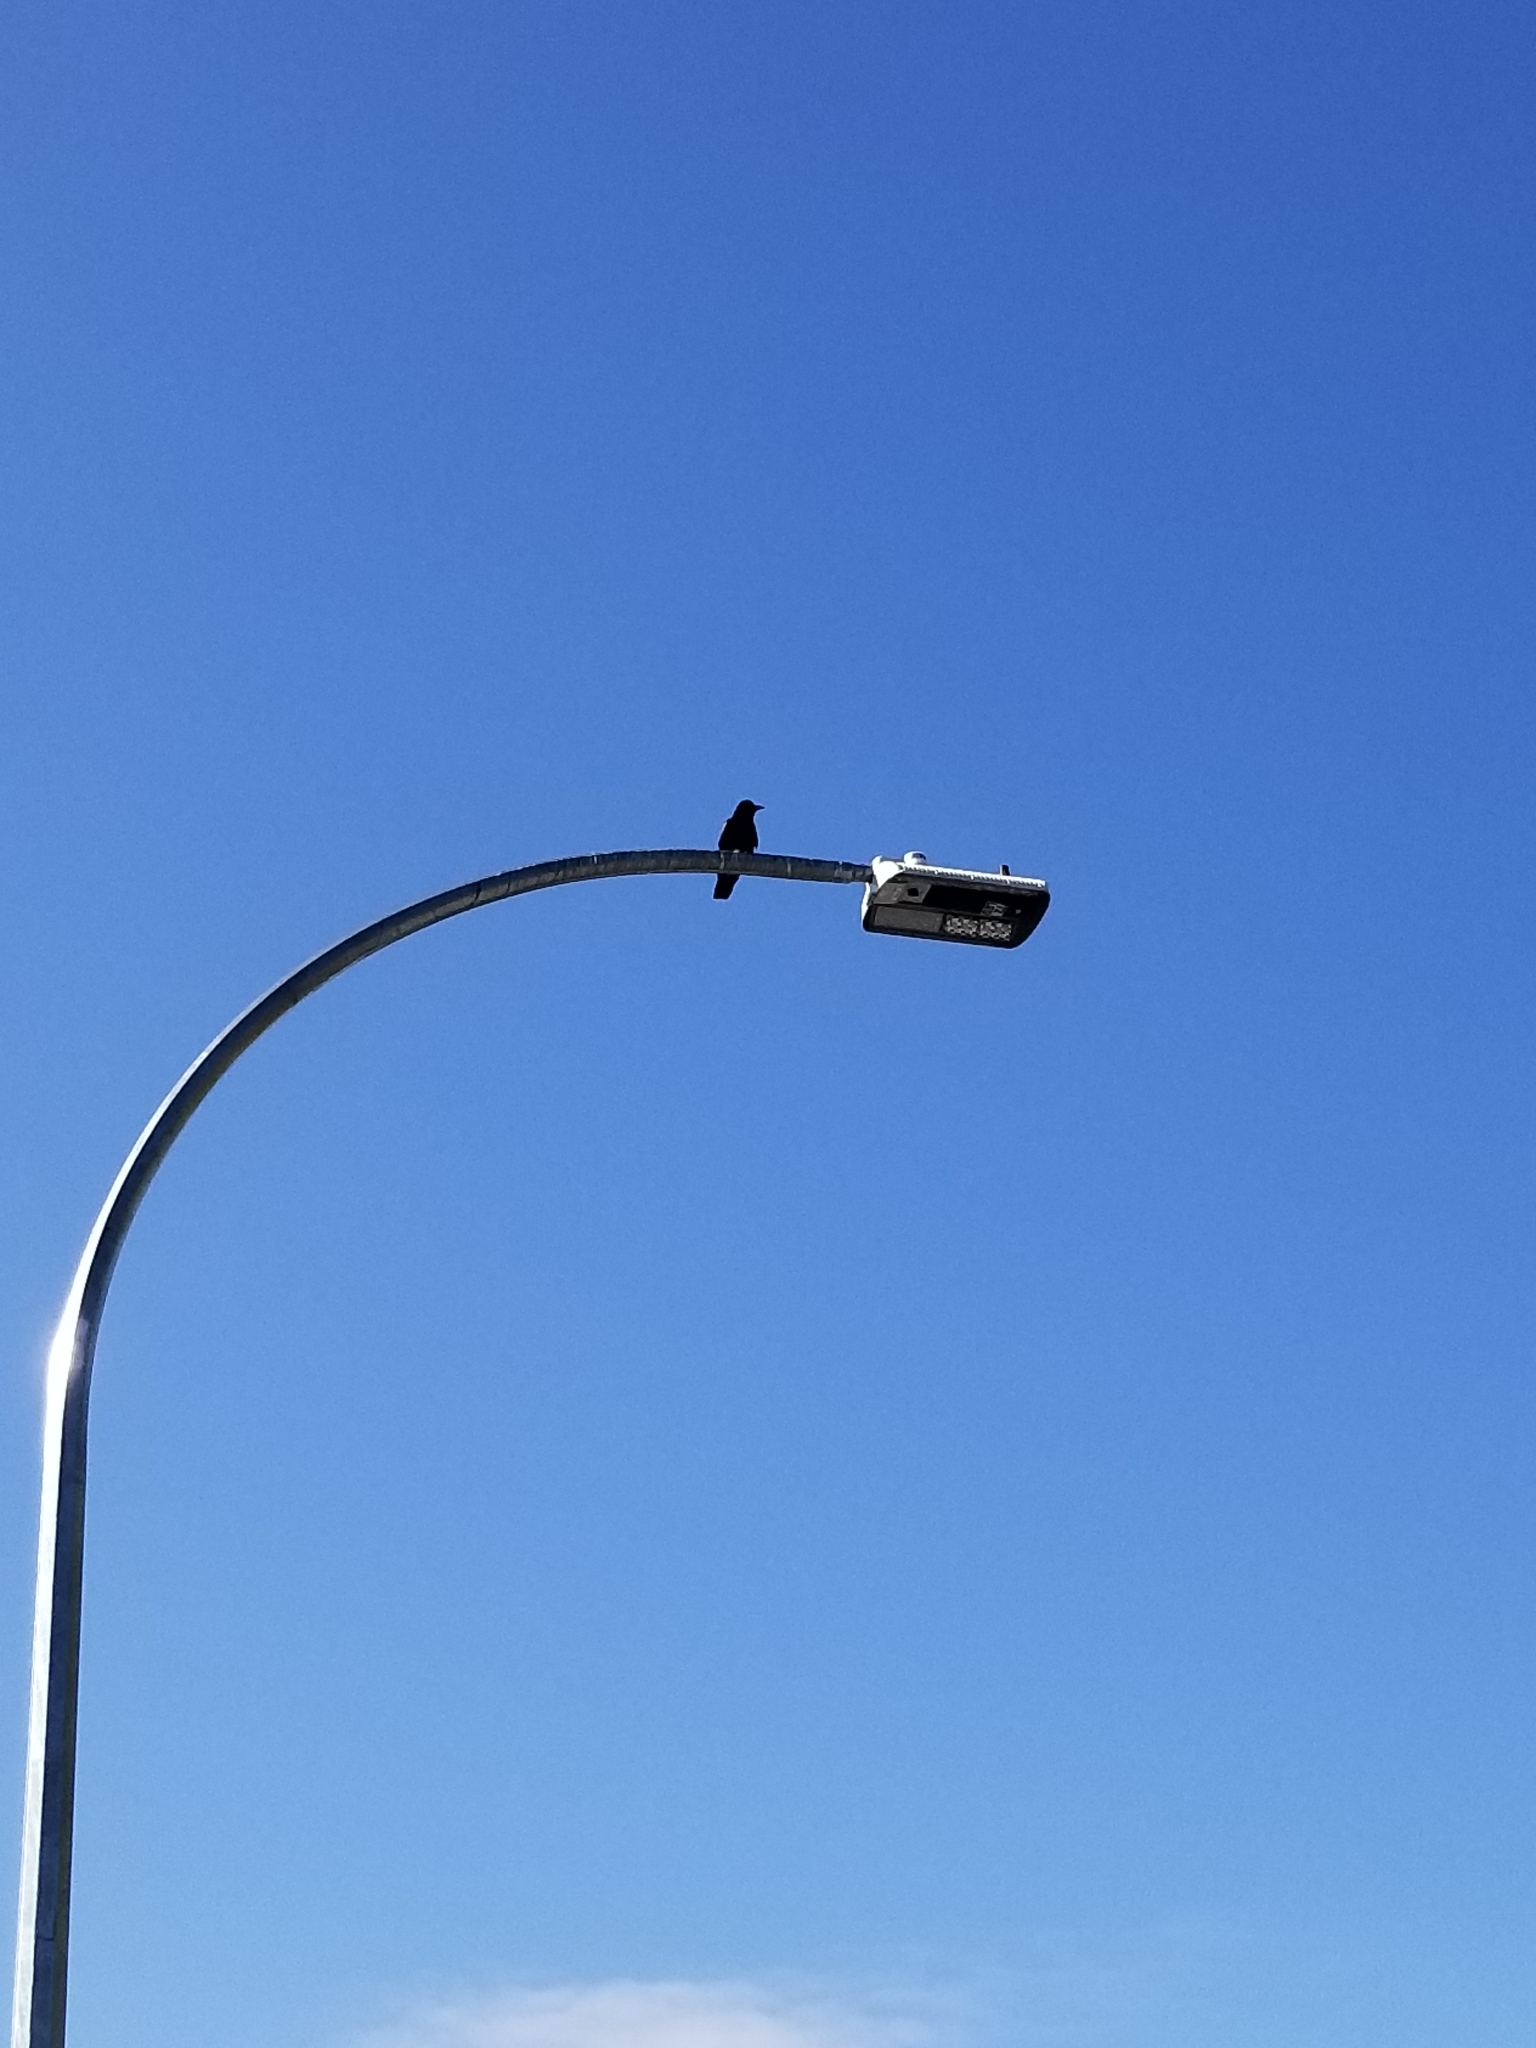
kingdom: Animalia
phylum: Chordata
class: Aves
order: Passeriformes
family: Corvidae
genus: Corvus
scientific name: Corvus brachyrhynchos
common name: American crow
